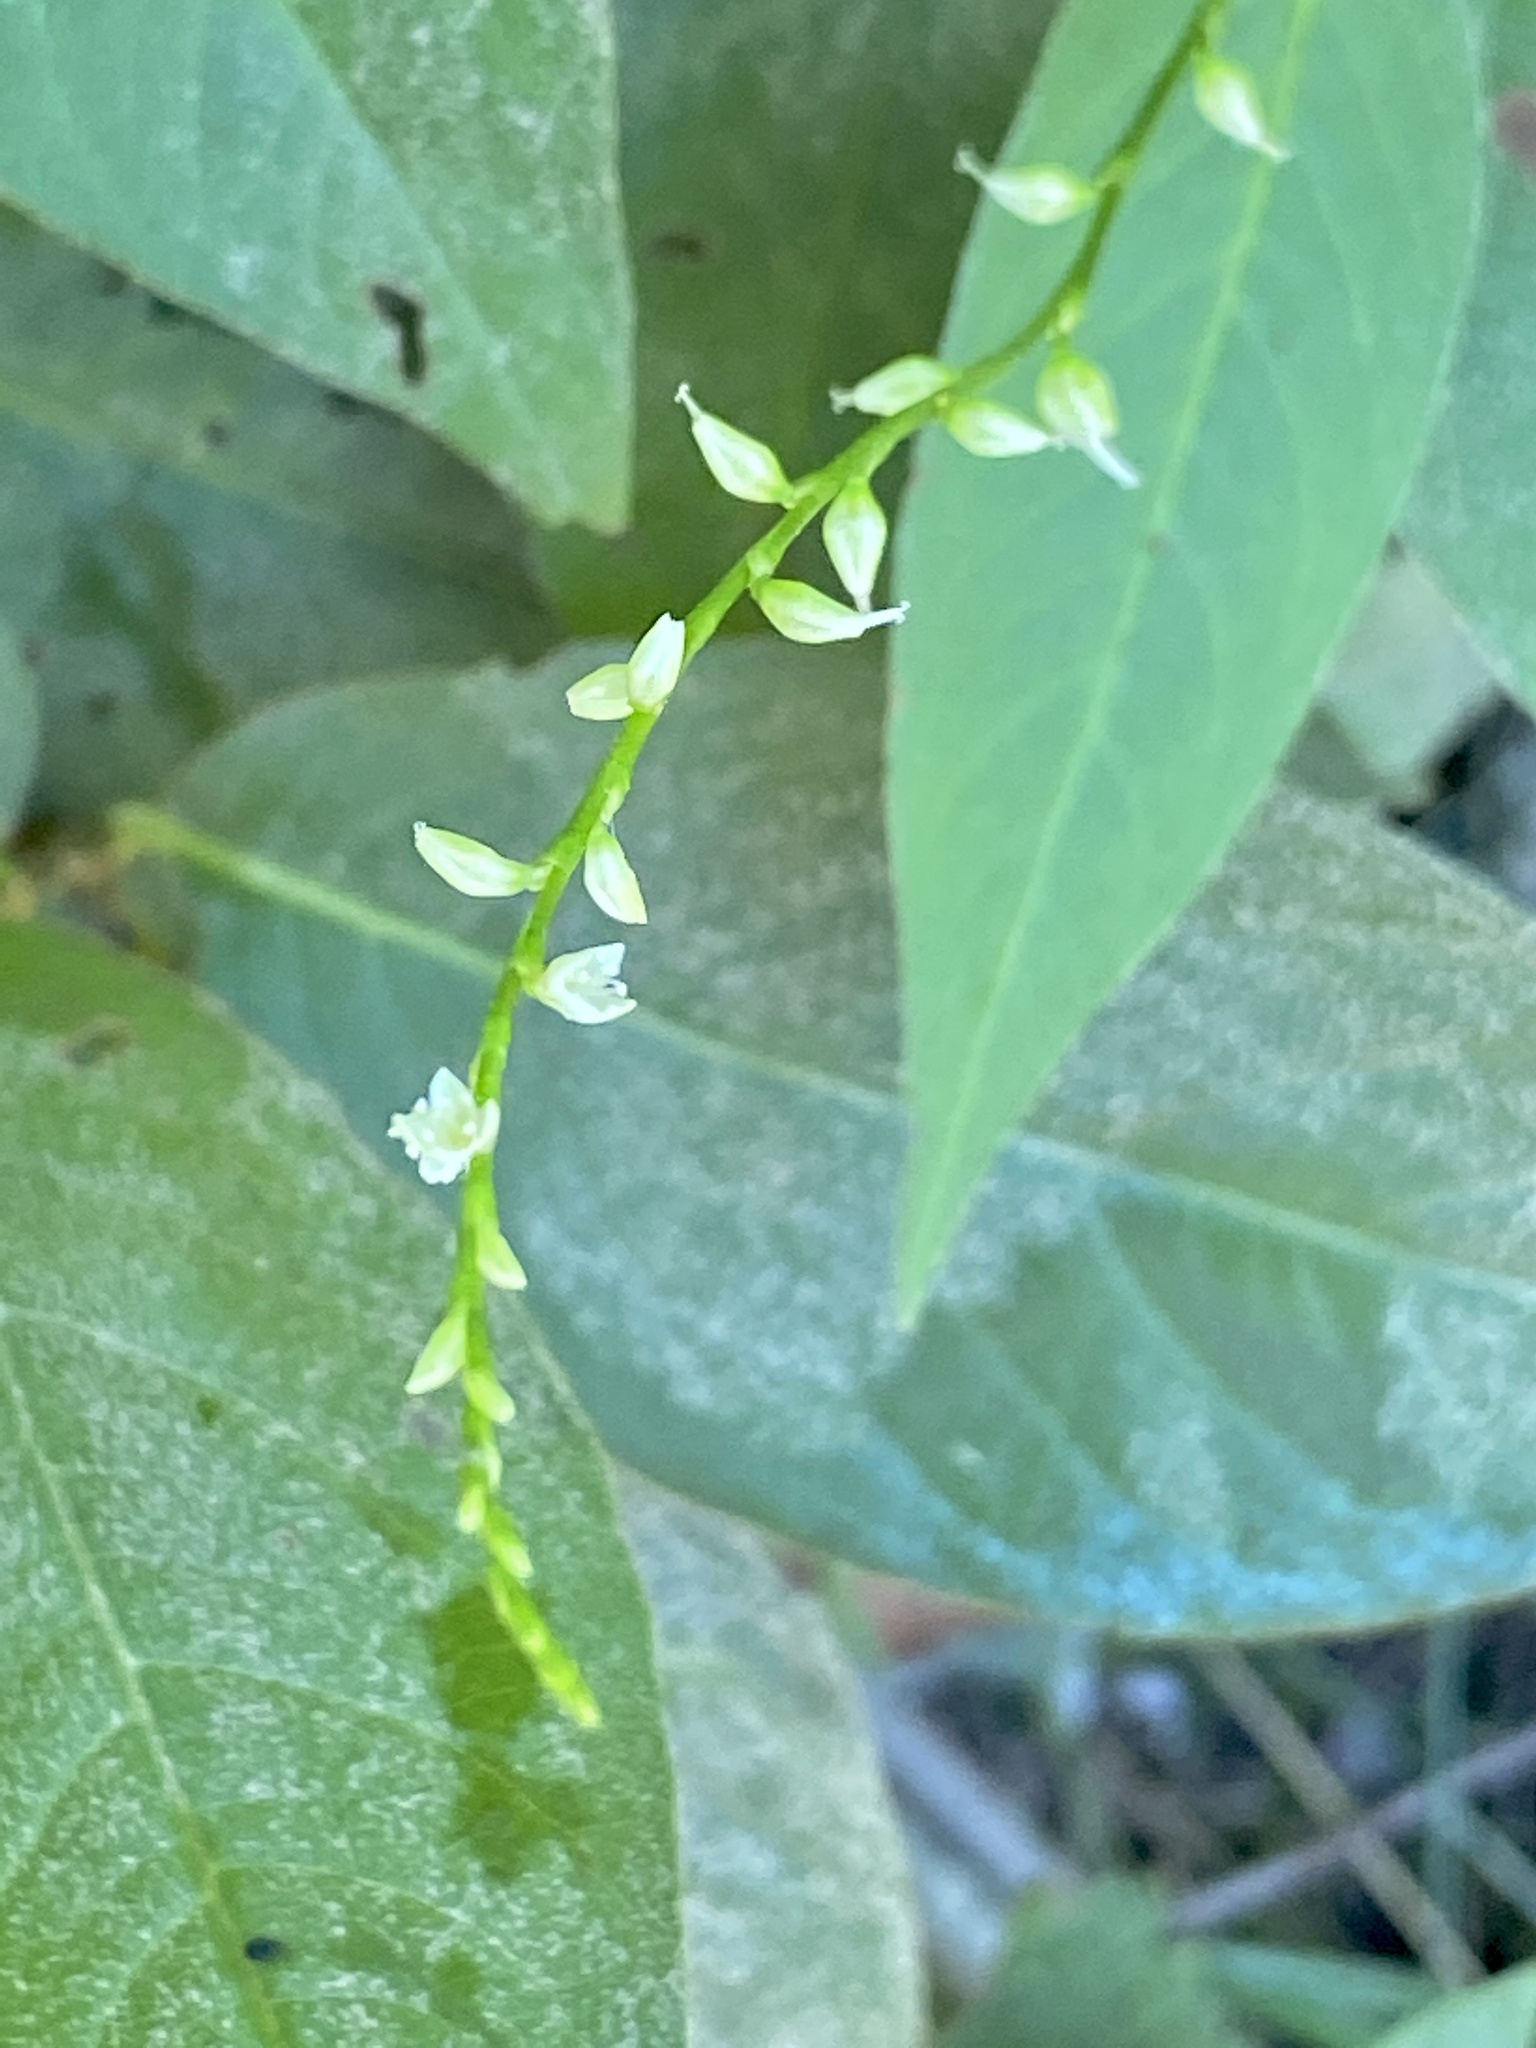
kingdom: Plantae
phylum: Tracheophyta
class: Magnoliopsida
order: Caryophyllales
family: Polygonaceae
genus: Persicaria
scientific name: Persicaria virginiana
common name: Jumpseed
